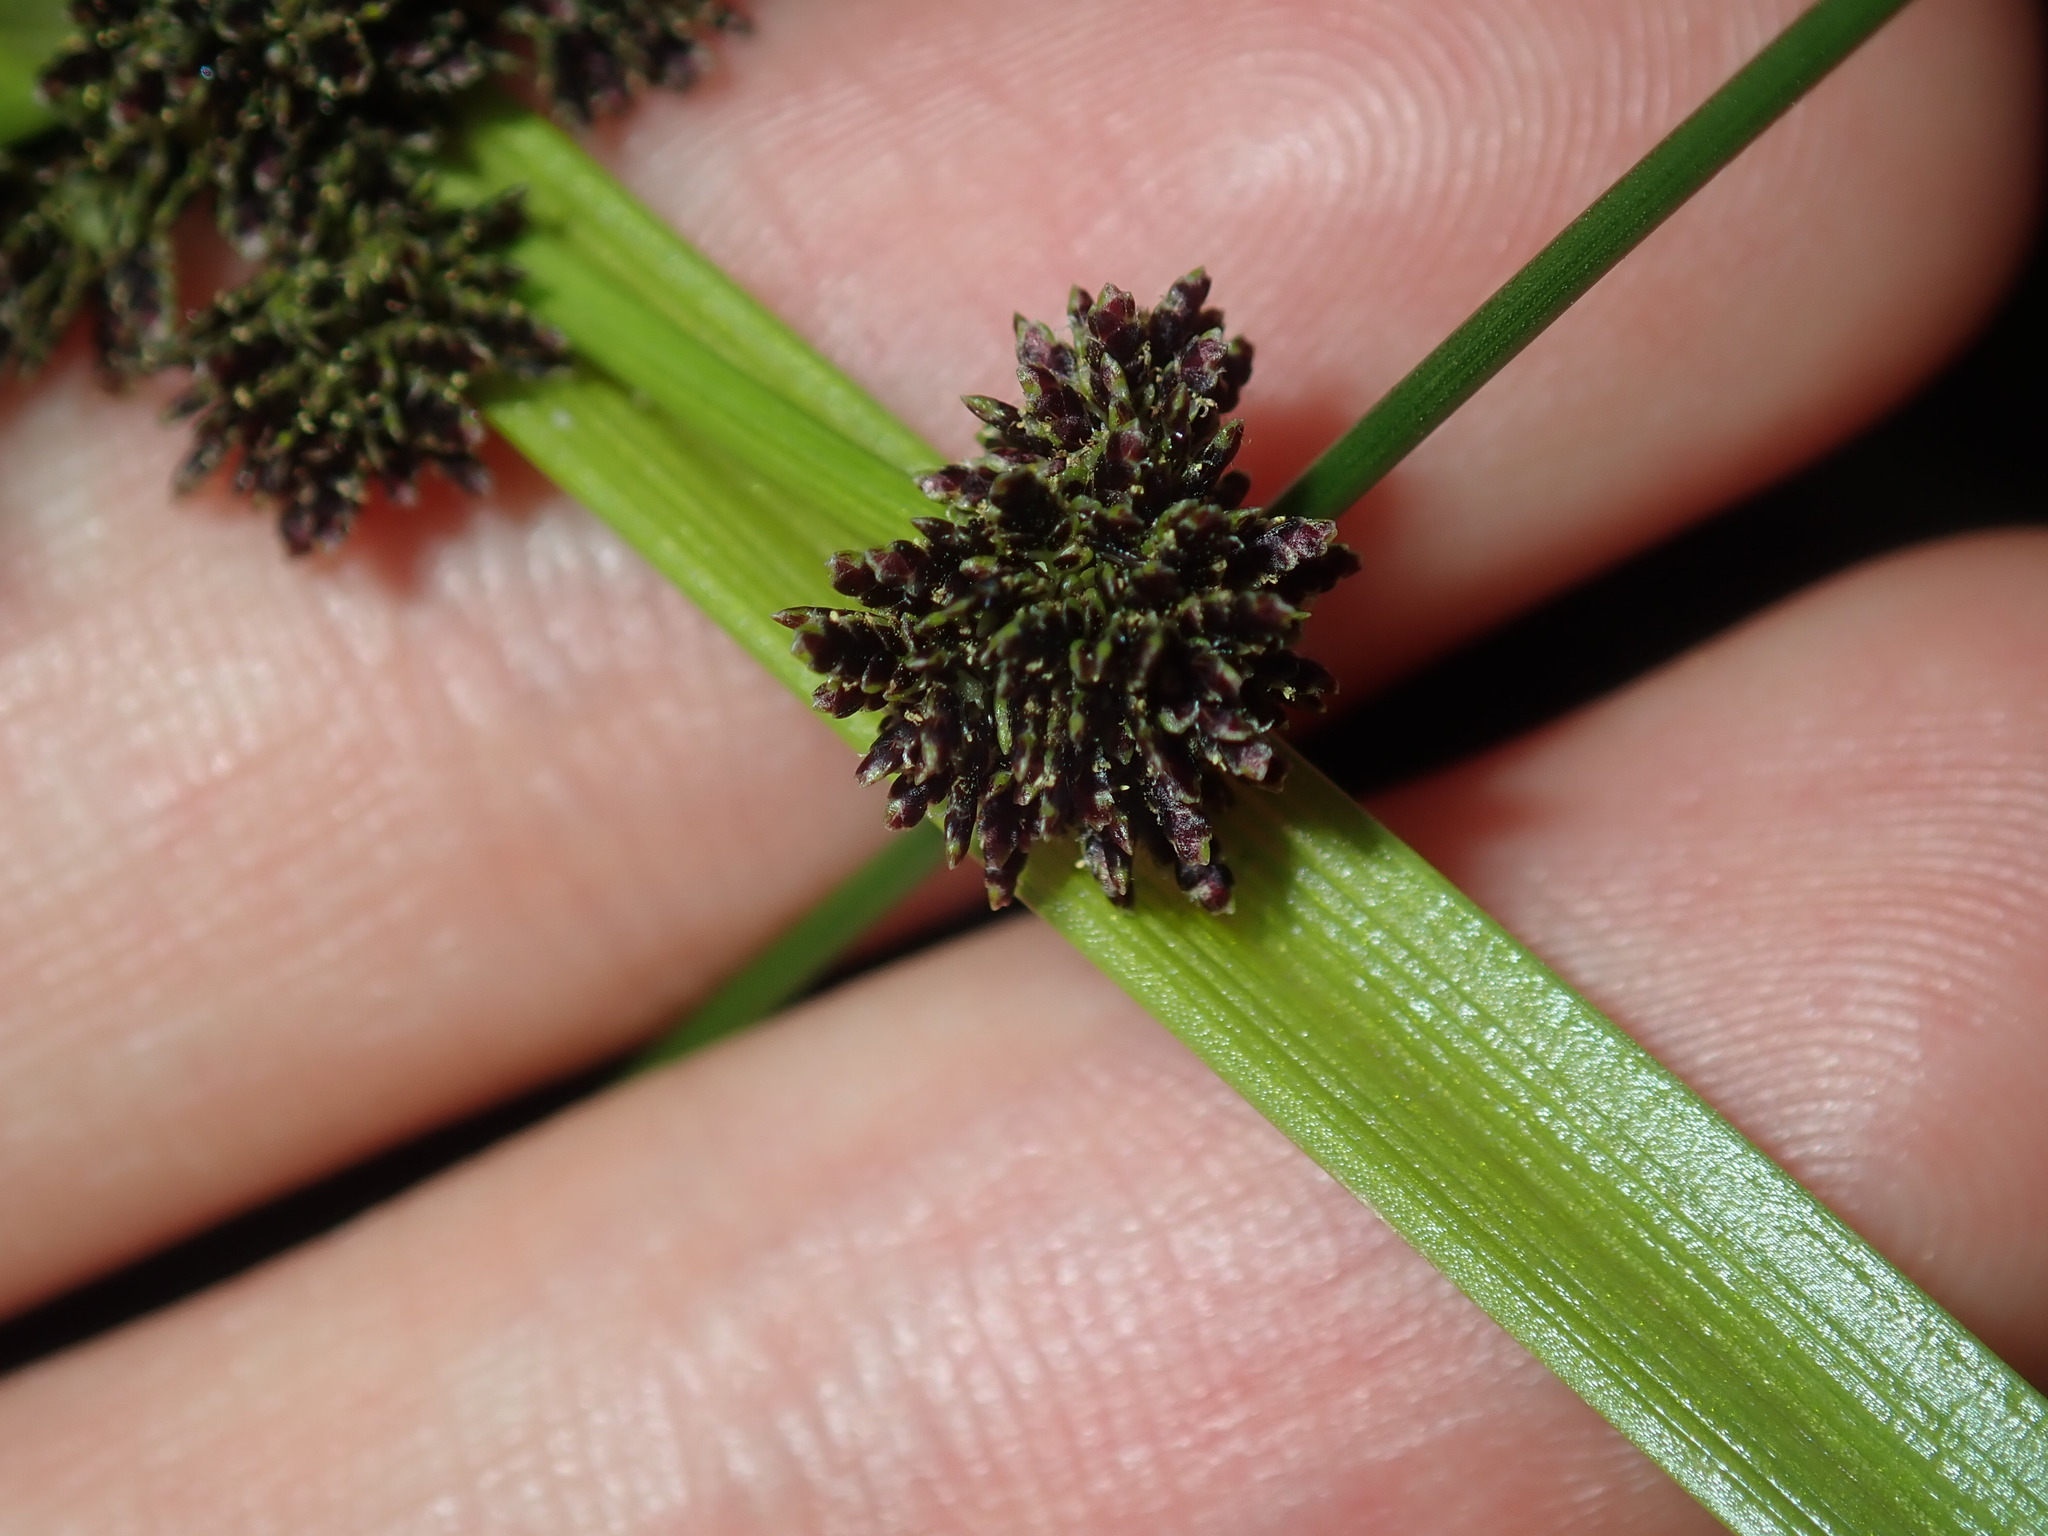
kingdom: Plantae
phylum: Tracheophyta
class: Liliopsida
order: Poales
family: Cyperaceae
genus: Cyperus
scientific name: Cyperus difformis
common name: Variable flatsedge
